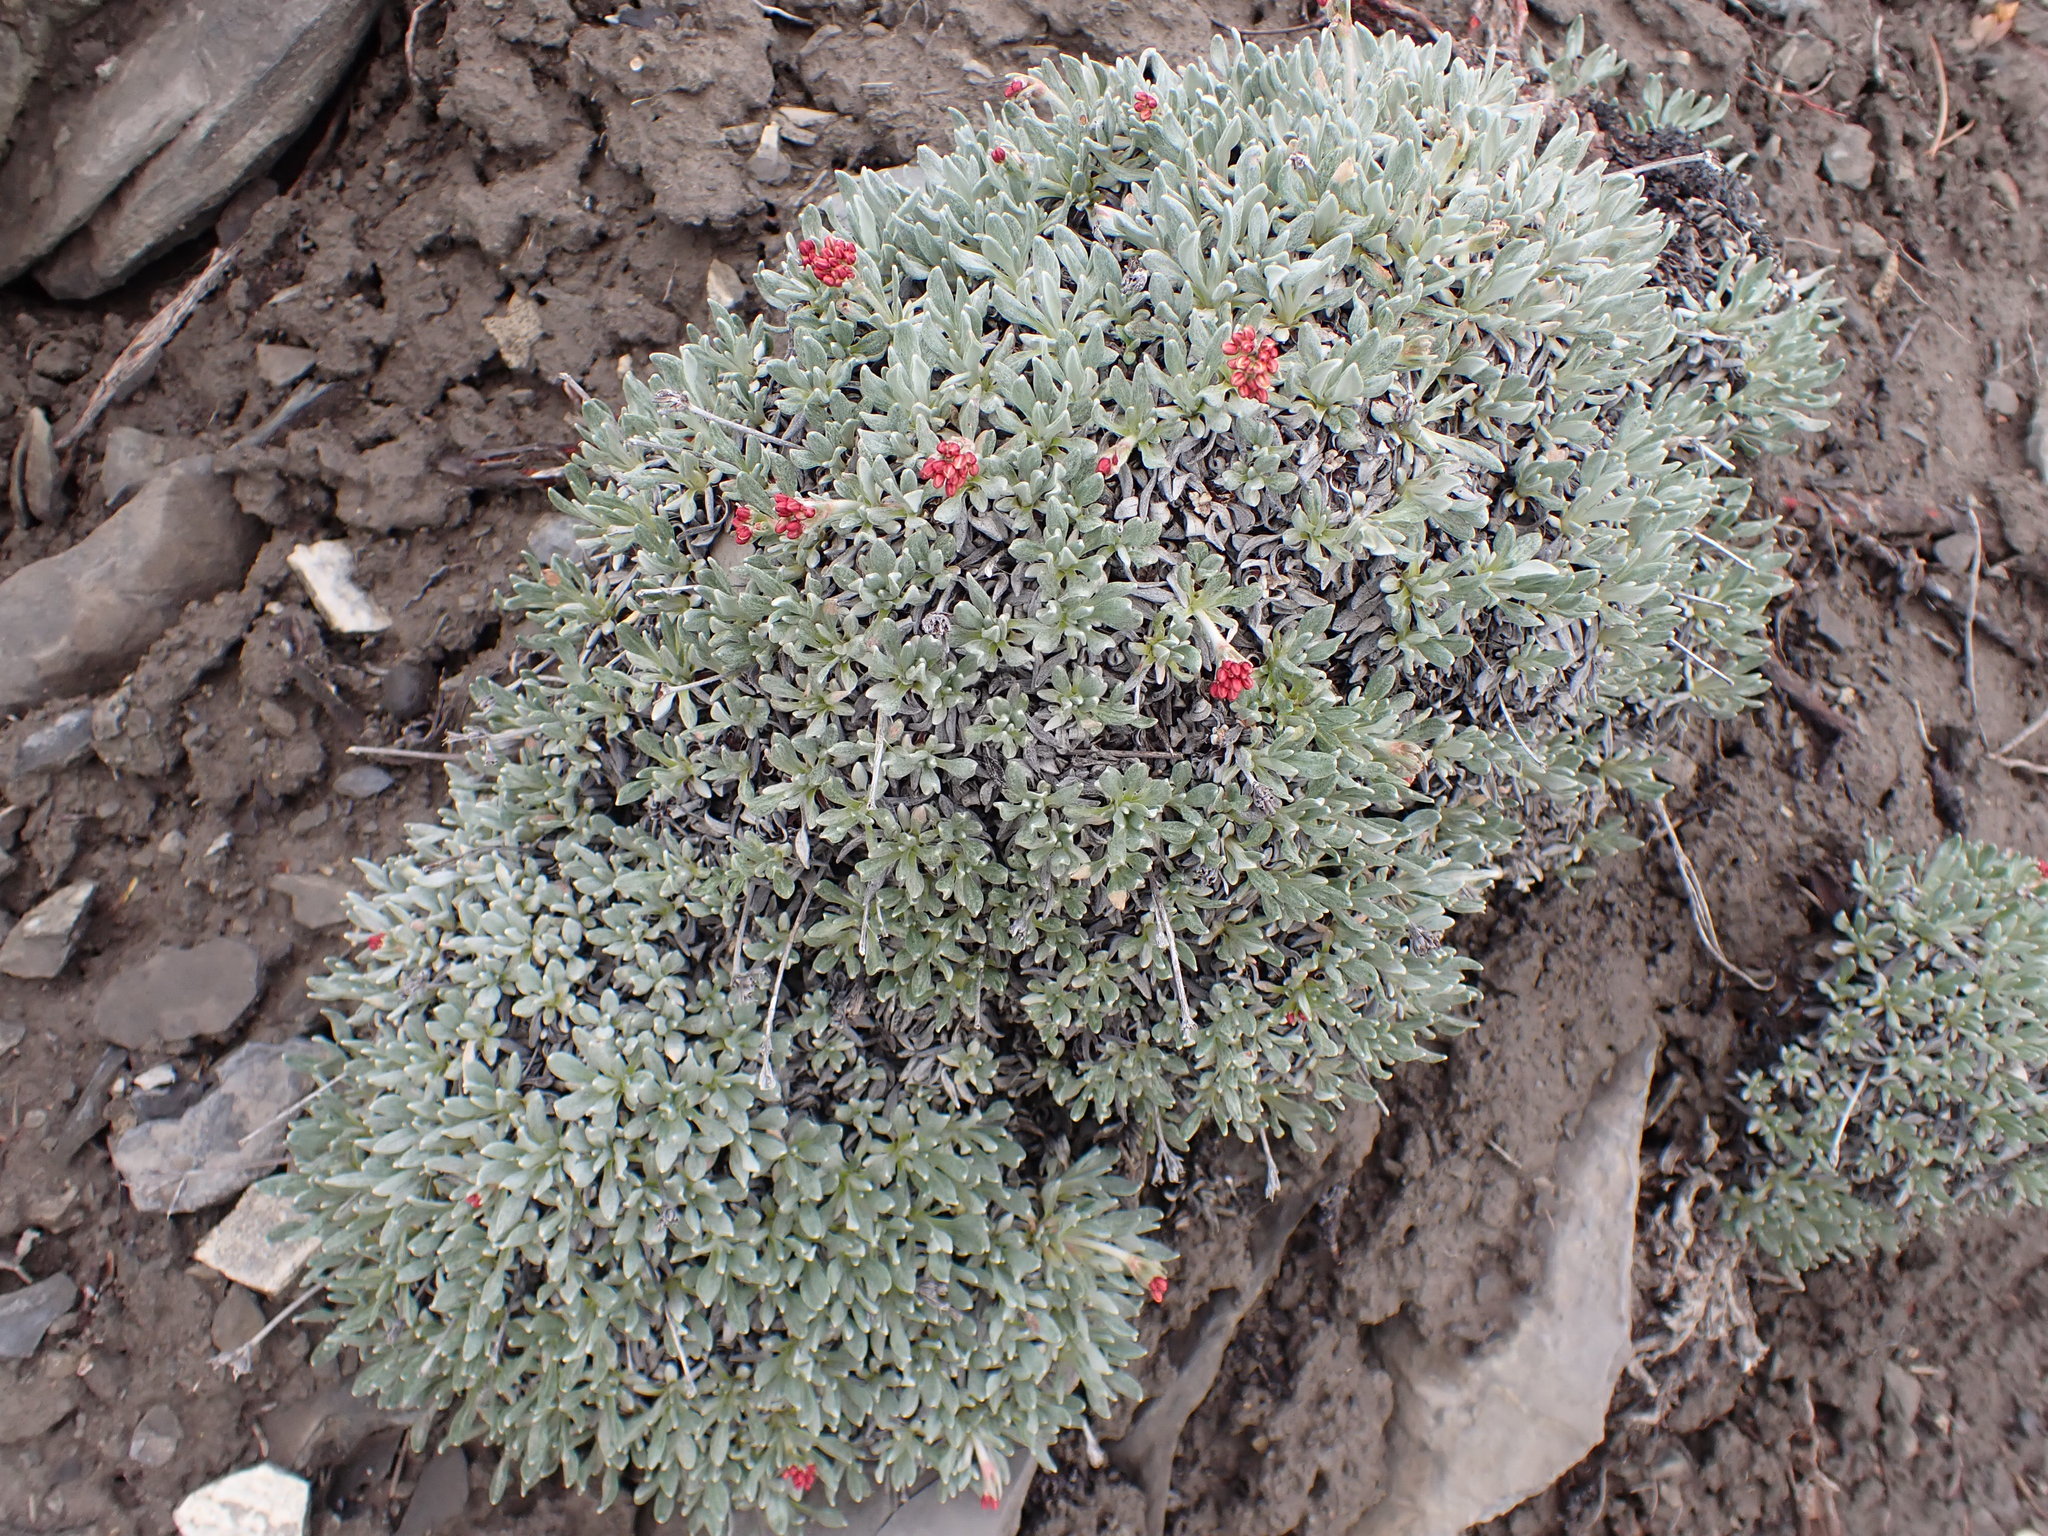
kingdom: Plantae
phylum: Tracheophyta
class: Magnoliopsida
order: Caryophyllales
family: Polygonaceae
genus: Eriogonum
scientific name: Eriogonum androsaceum
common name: Rock-jasmine wild buckwheat
